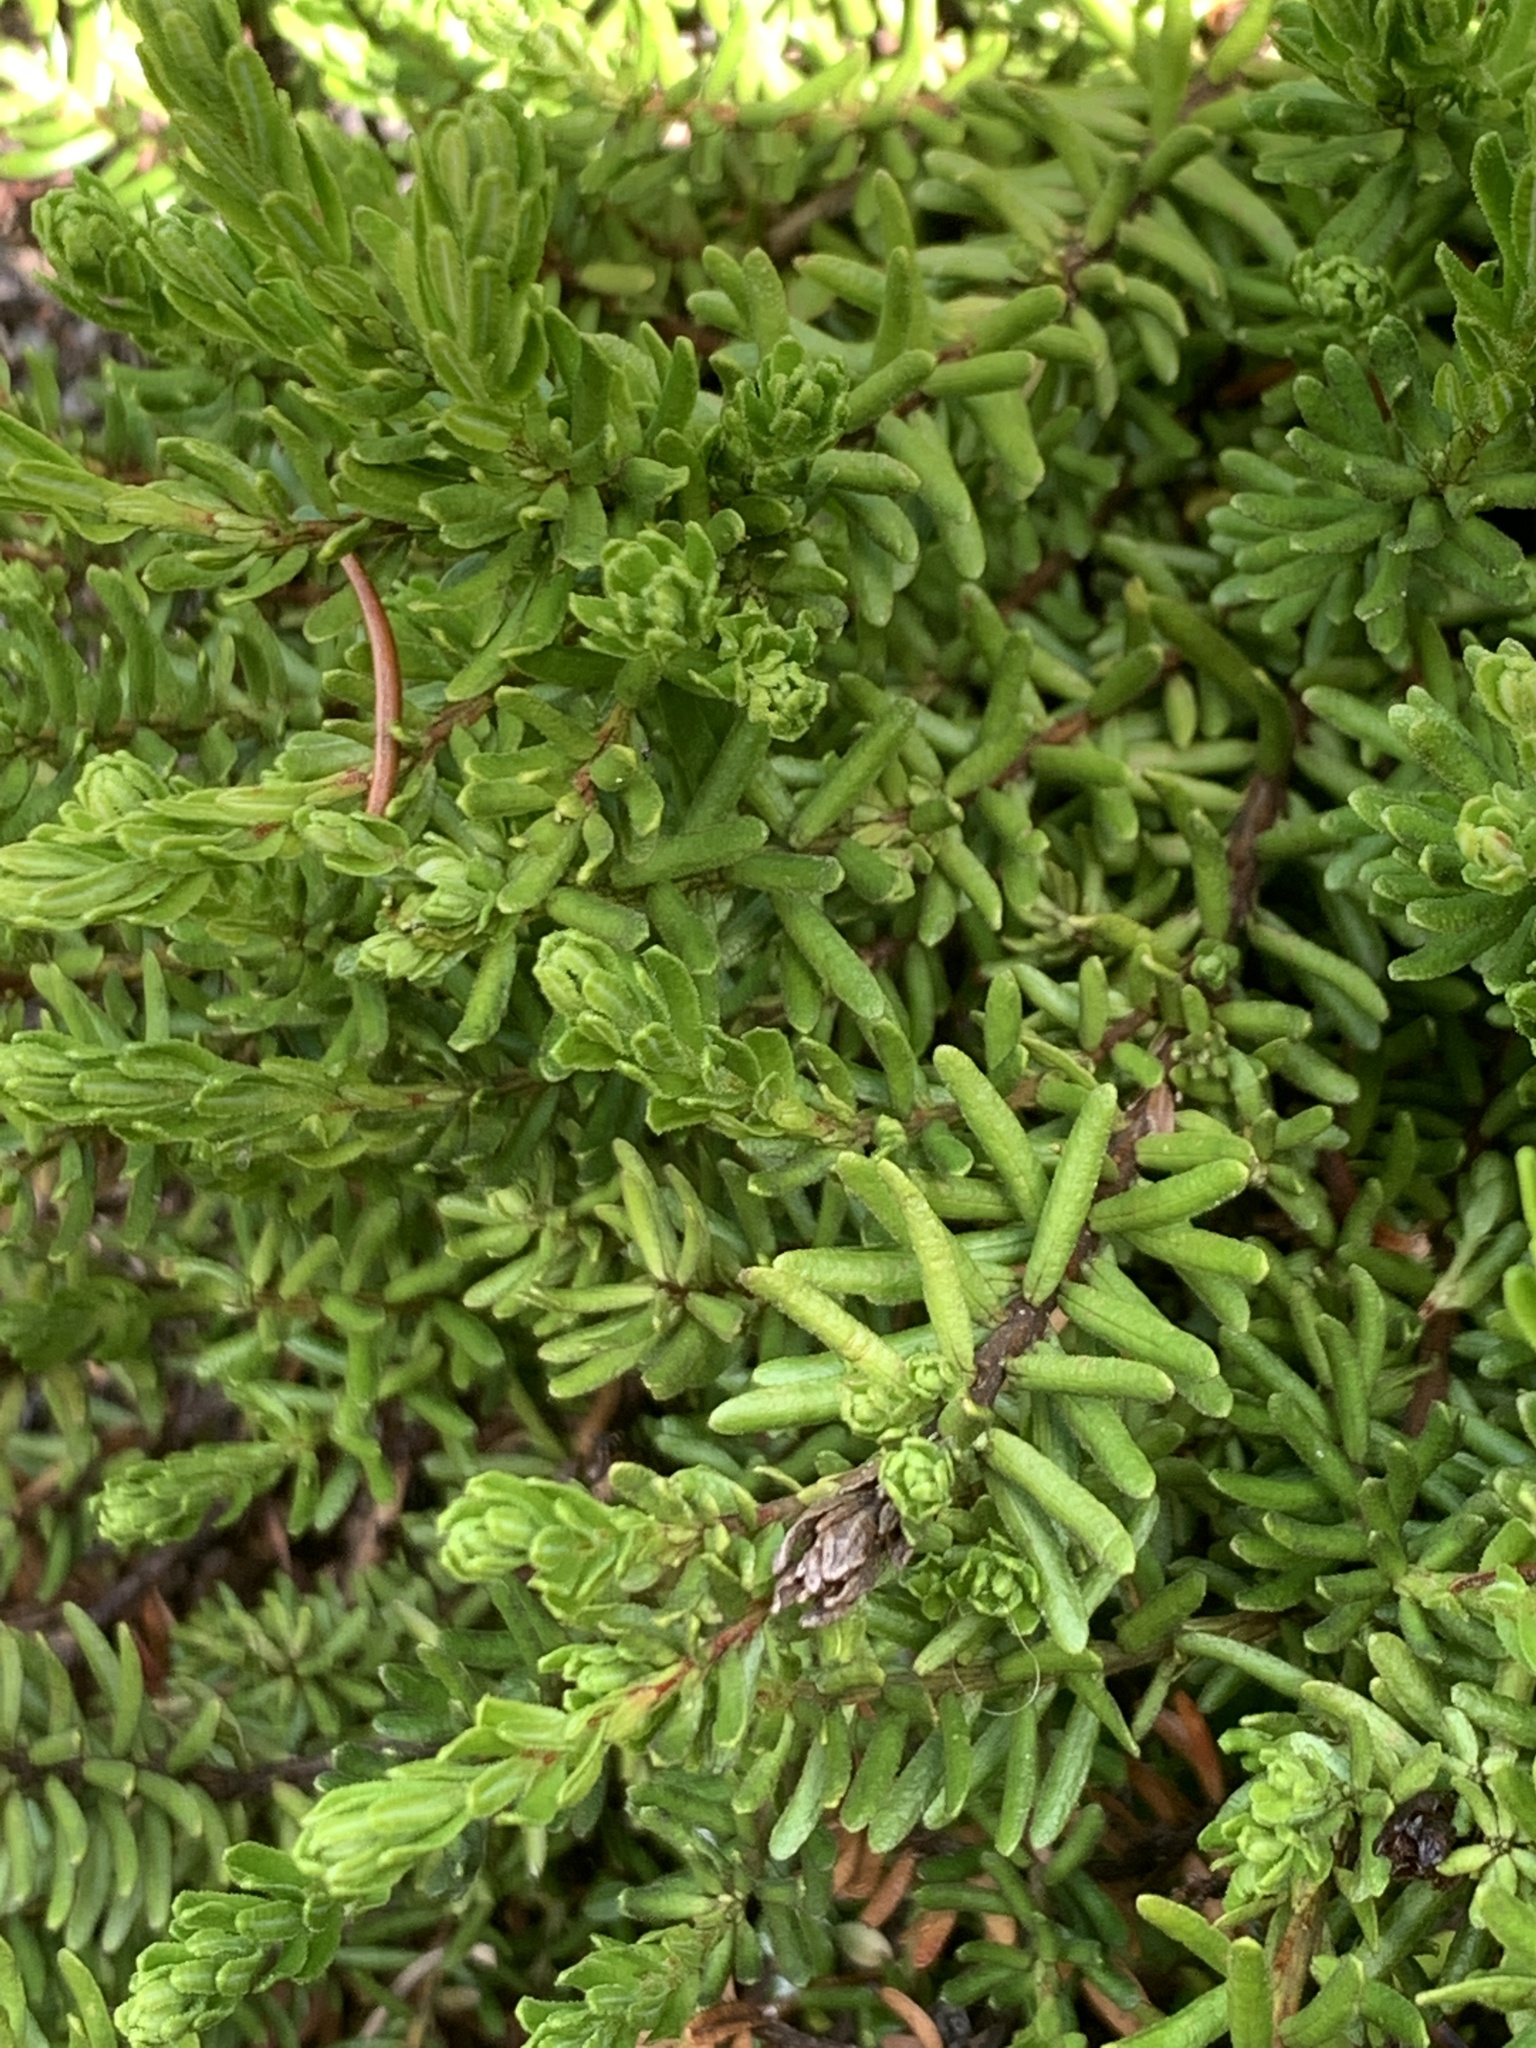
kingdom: Plantae
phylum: Tracheophyta
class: Magnoliopsida
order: Ericales
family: Ericaceae
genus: Phyllodoce
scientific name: Phyllodoce
